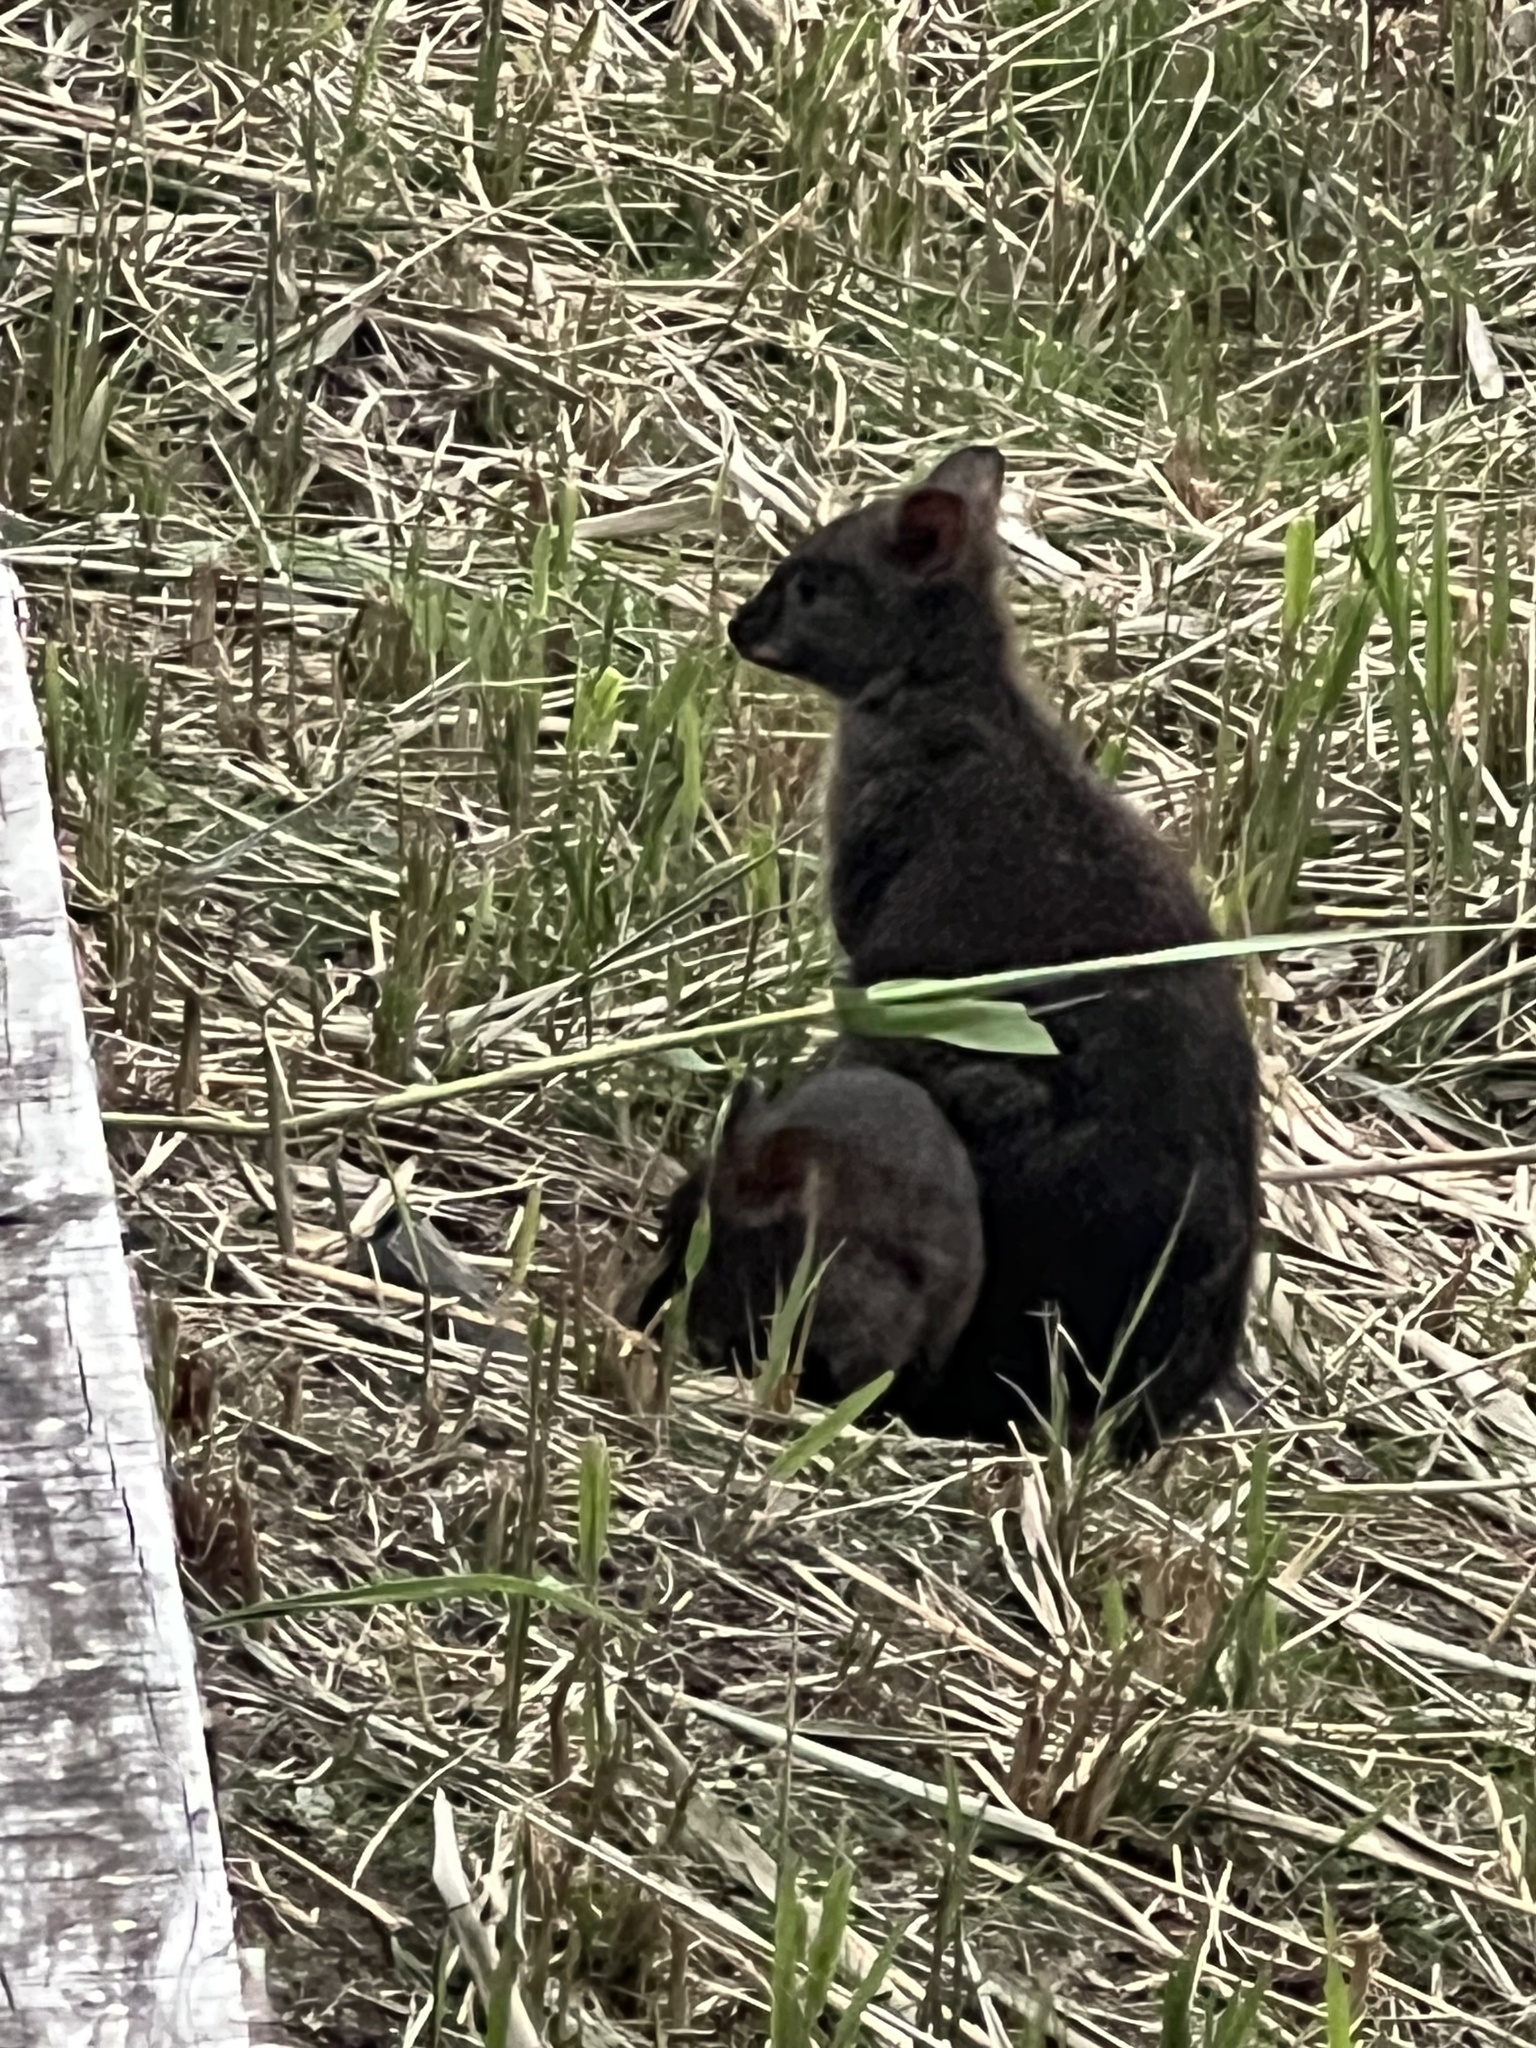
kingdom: Animalia
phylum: Chordata
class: Mammalia
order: Diprotodontia
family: Macropodidae
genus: Thylogale
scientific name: Thylogale billardierii
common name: Tasmanian pademelon
